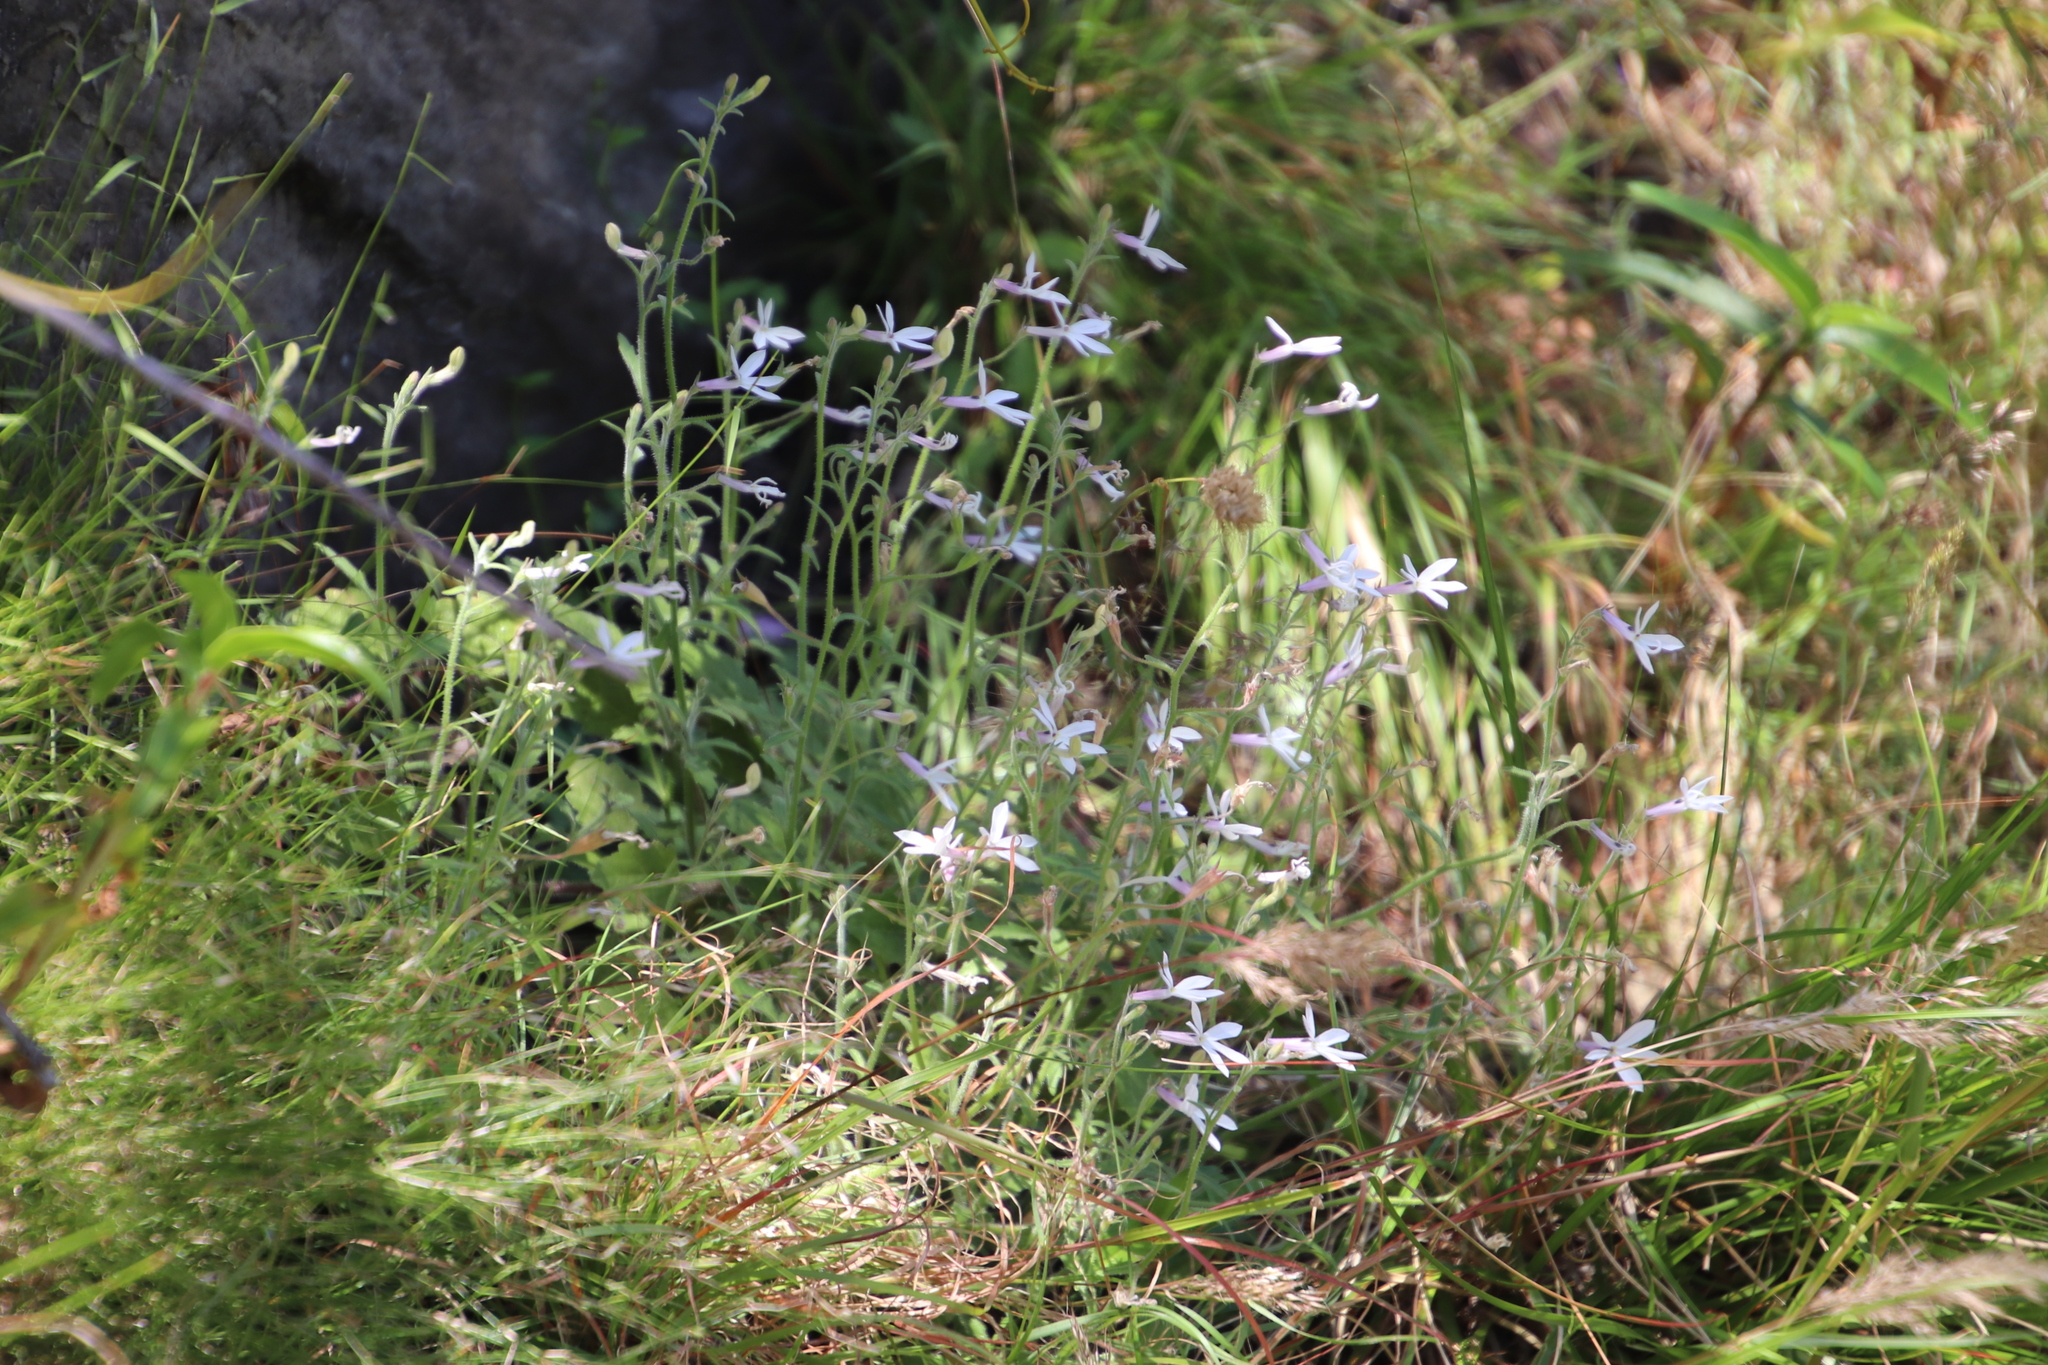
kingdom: Plantae
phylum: Tracheophyta
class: Magnoliopsida
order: Asterales
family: Campanulaceae
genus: Lobelia
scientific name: Lobelia pubescens
